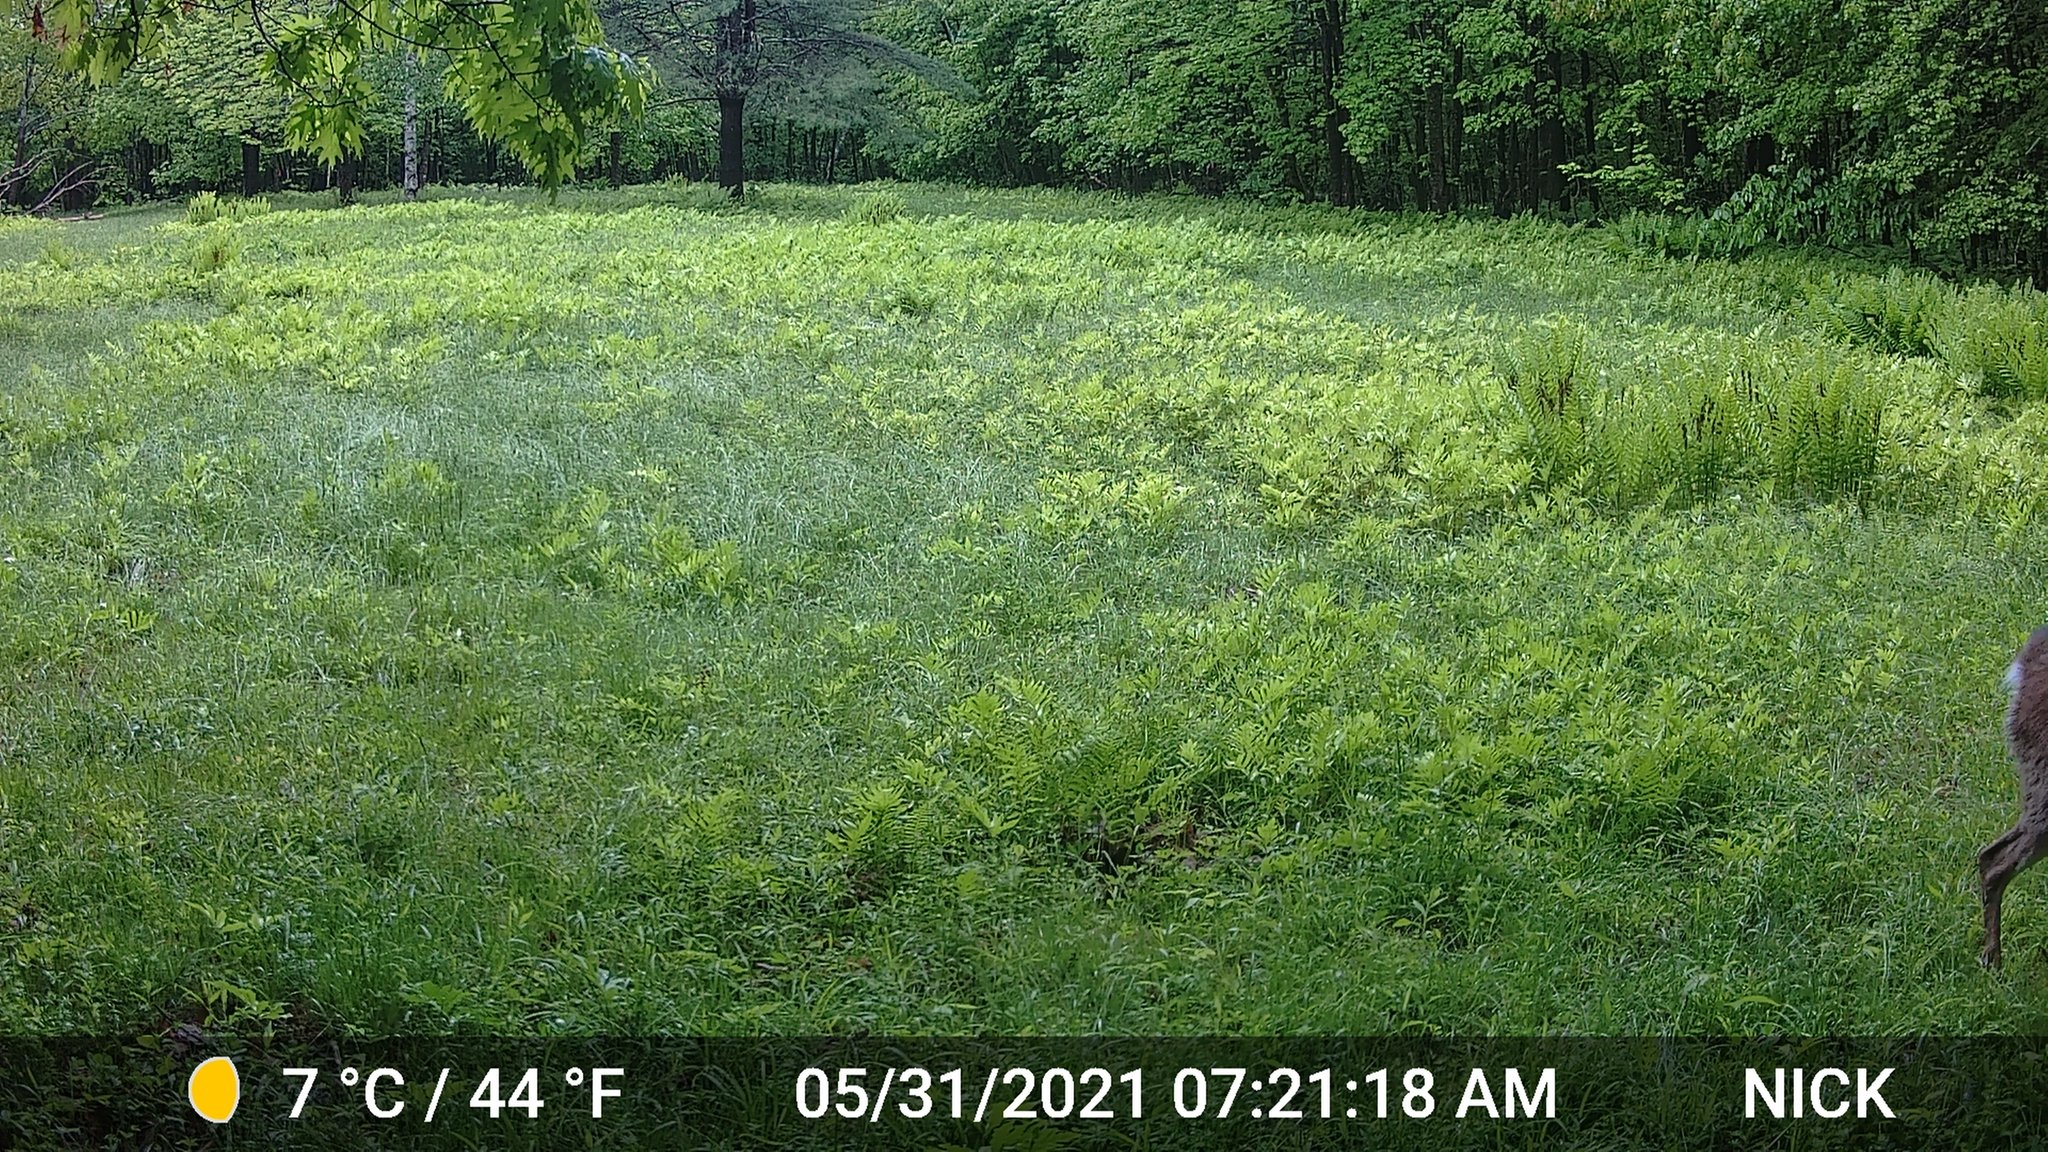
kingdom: Animalia
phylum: Chordata
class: Mammalia
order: Artiodactyla
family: Cervidae
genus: Odocoileus
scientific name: Odocoileus virginianus
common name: White-tailed deer
